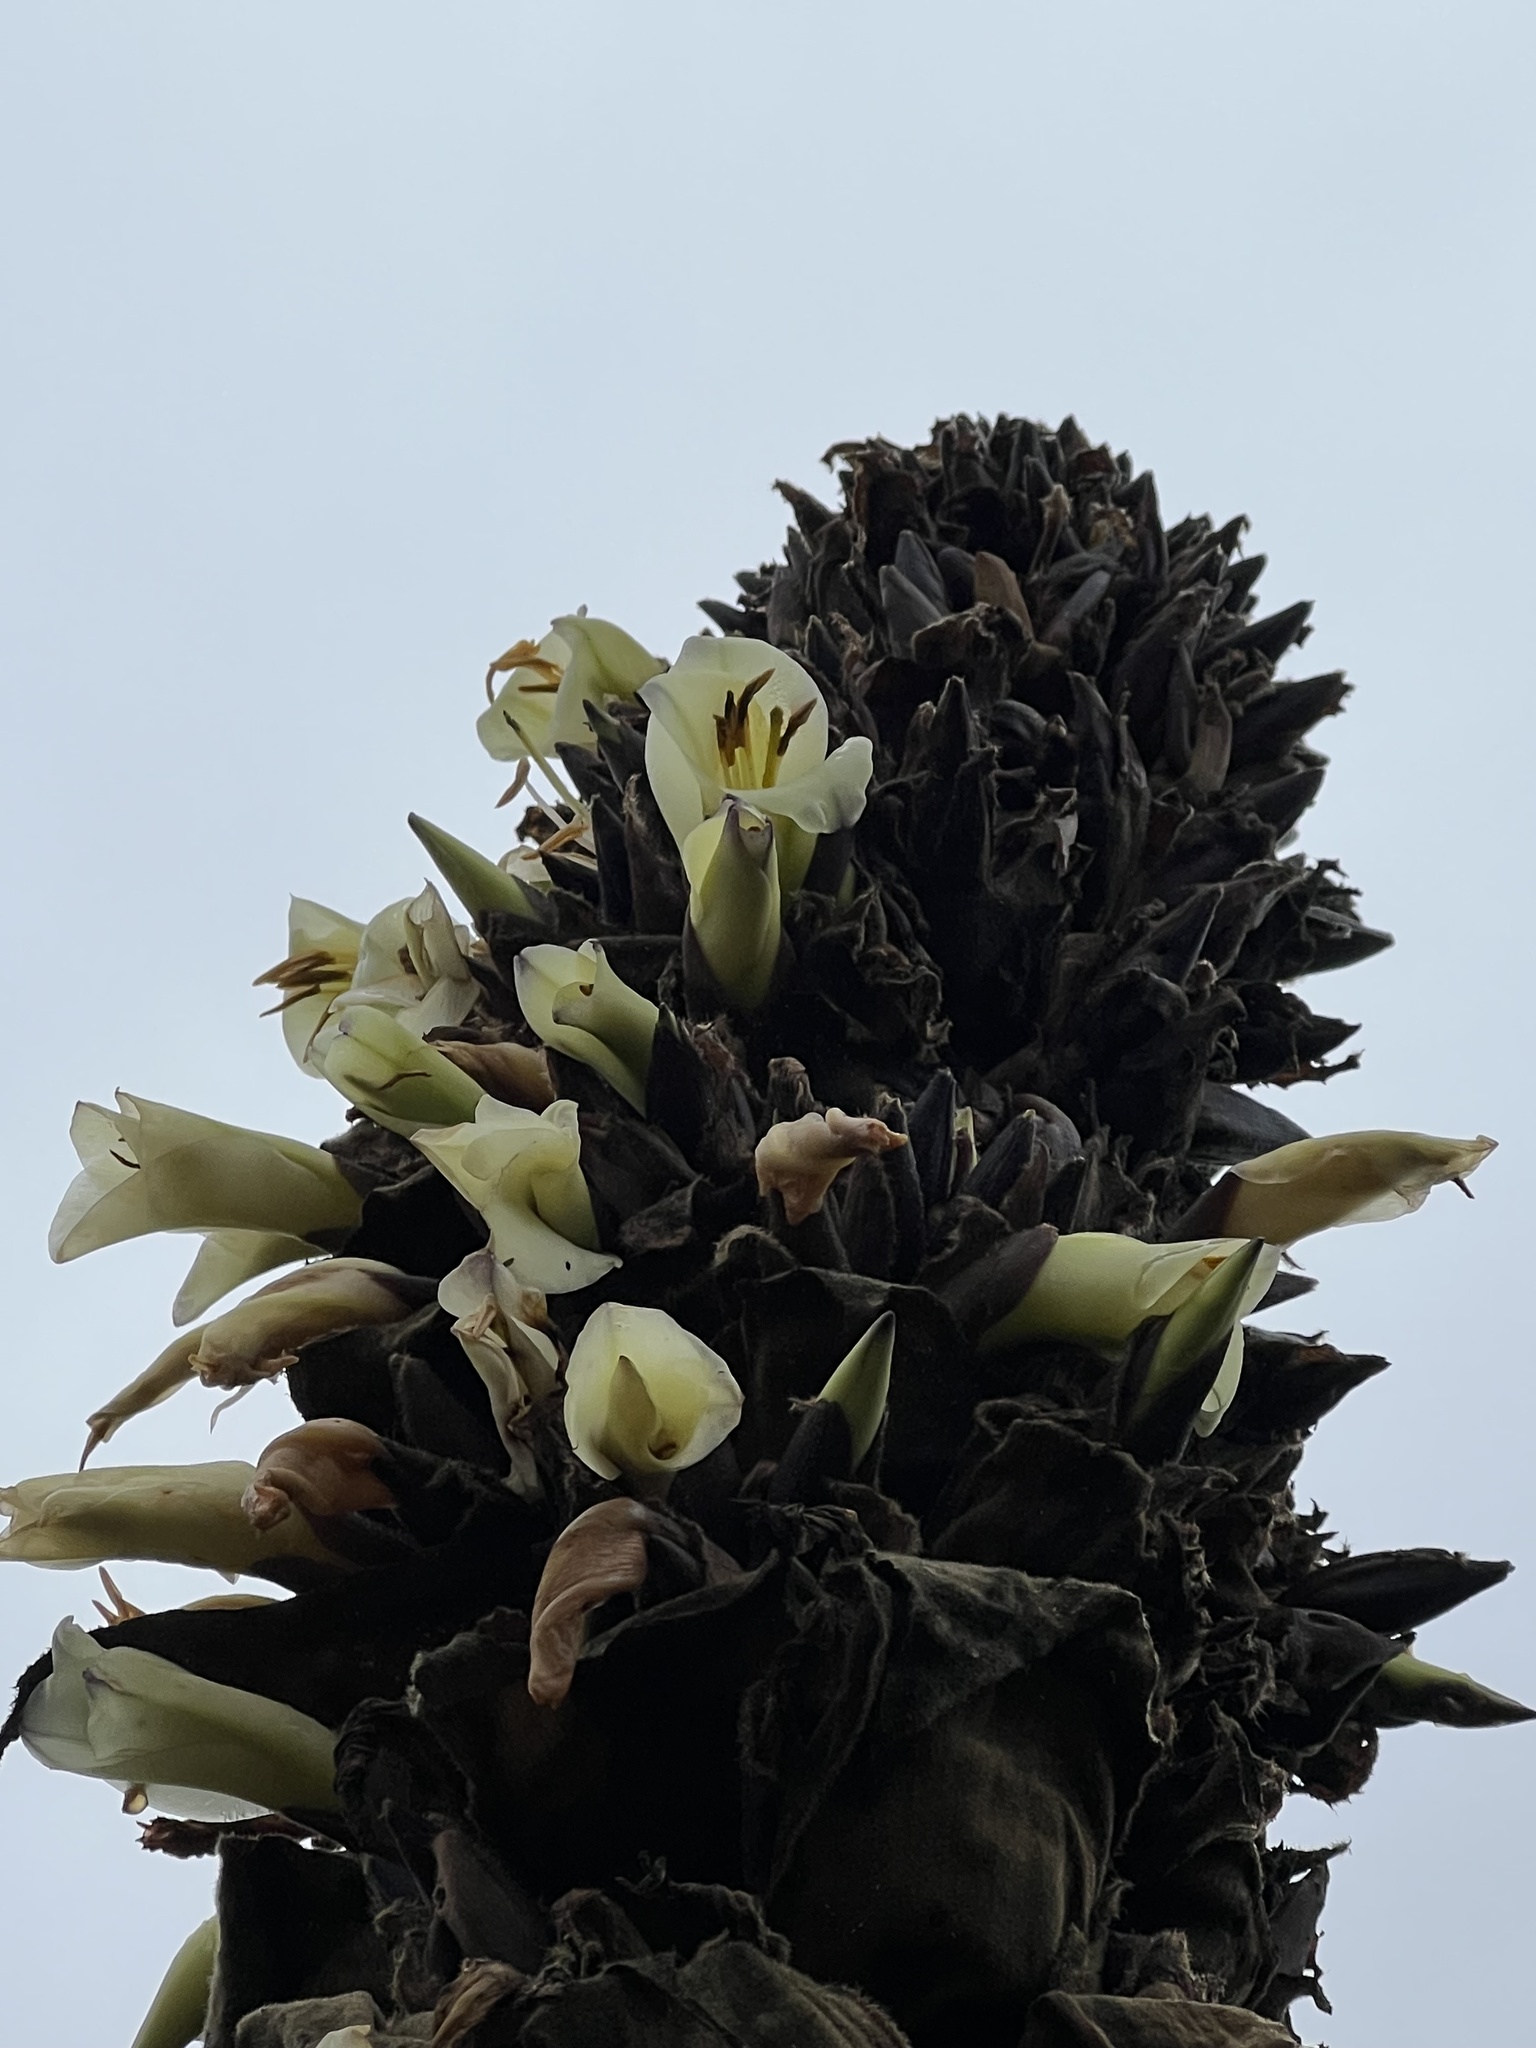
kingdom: Plantae
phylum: Tracheophyta
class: Liliopsida
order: Poales
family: Bromeliaceae
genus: Puya
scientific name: Puya goudotiana
